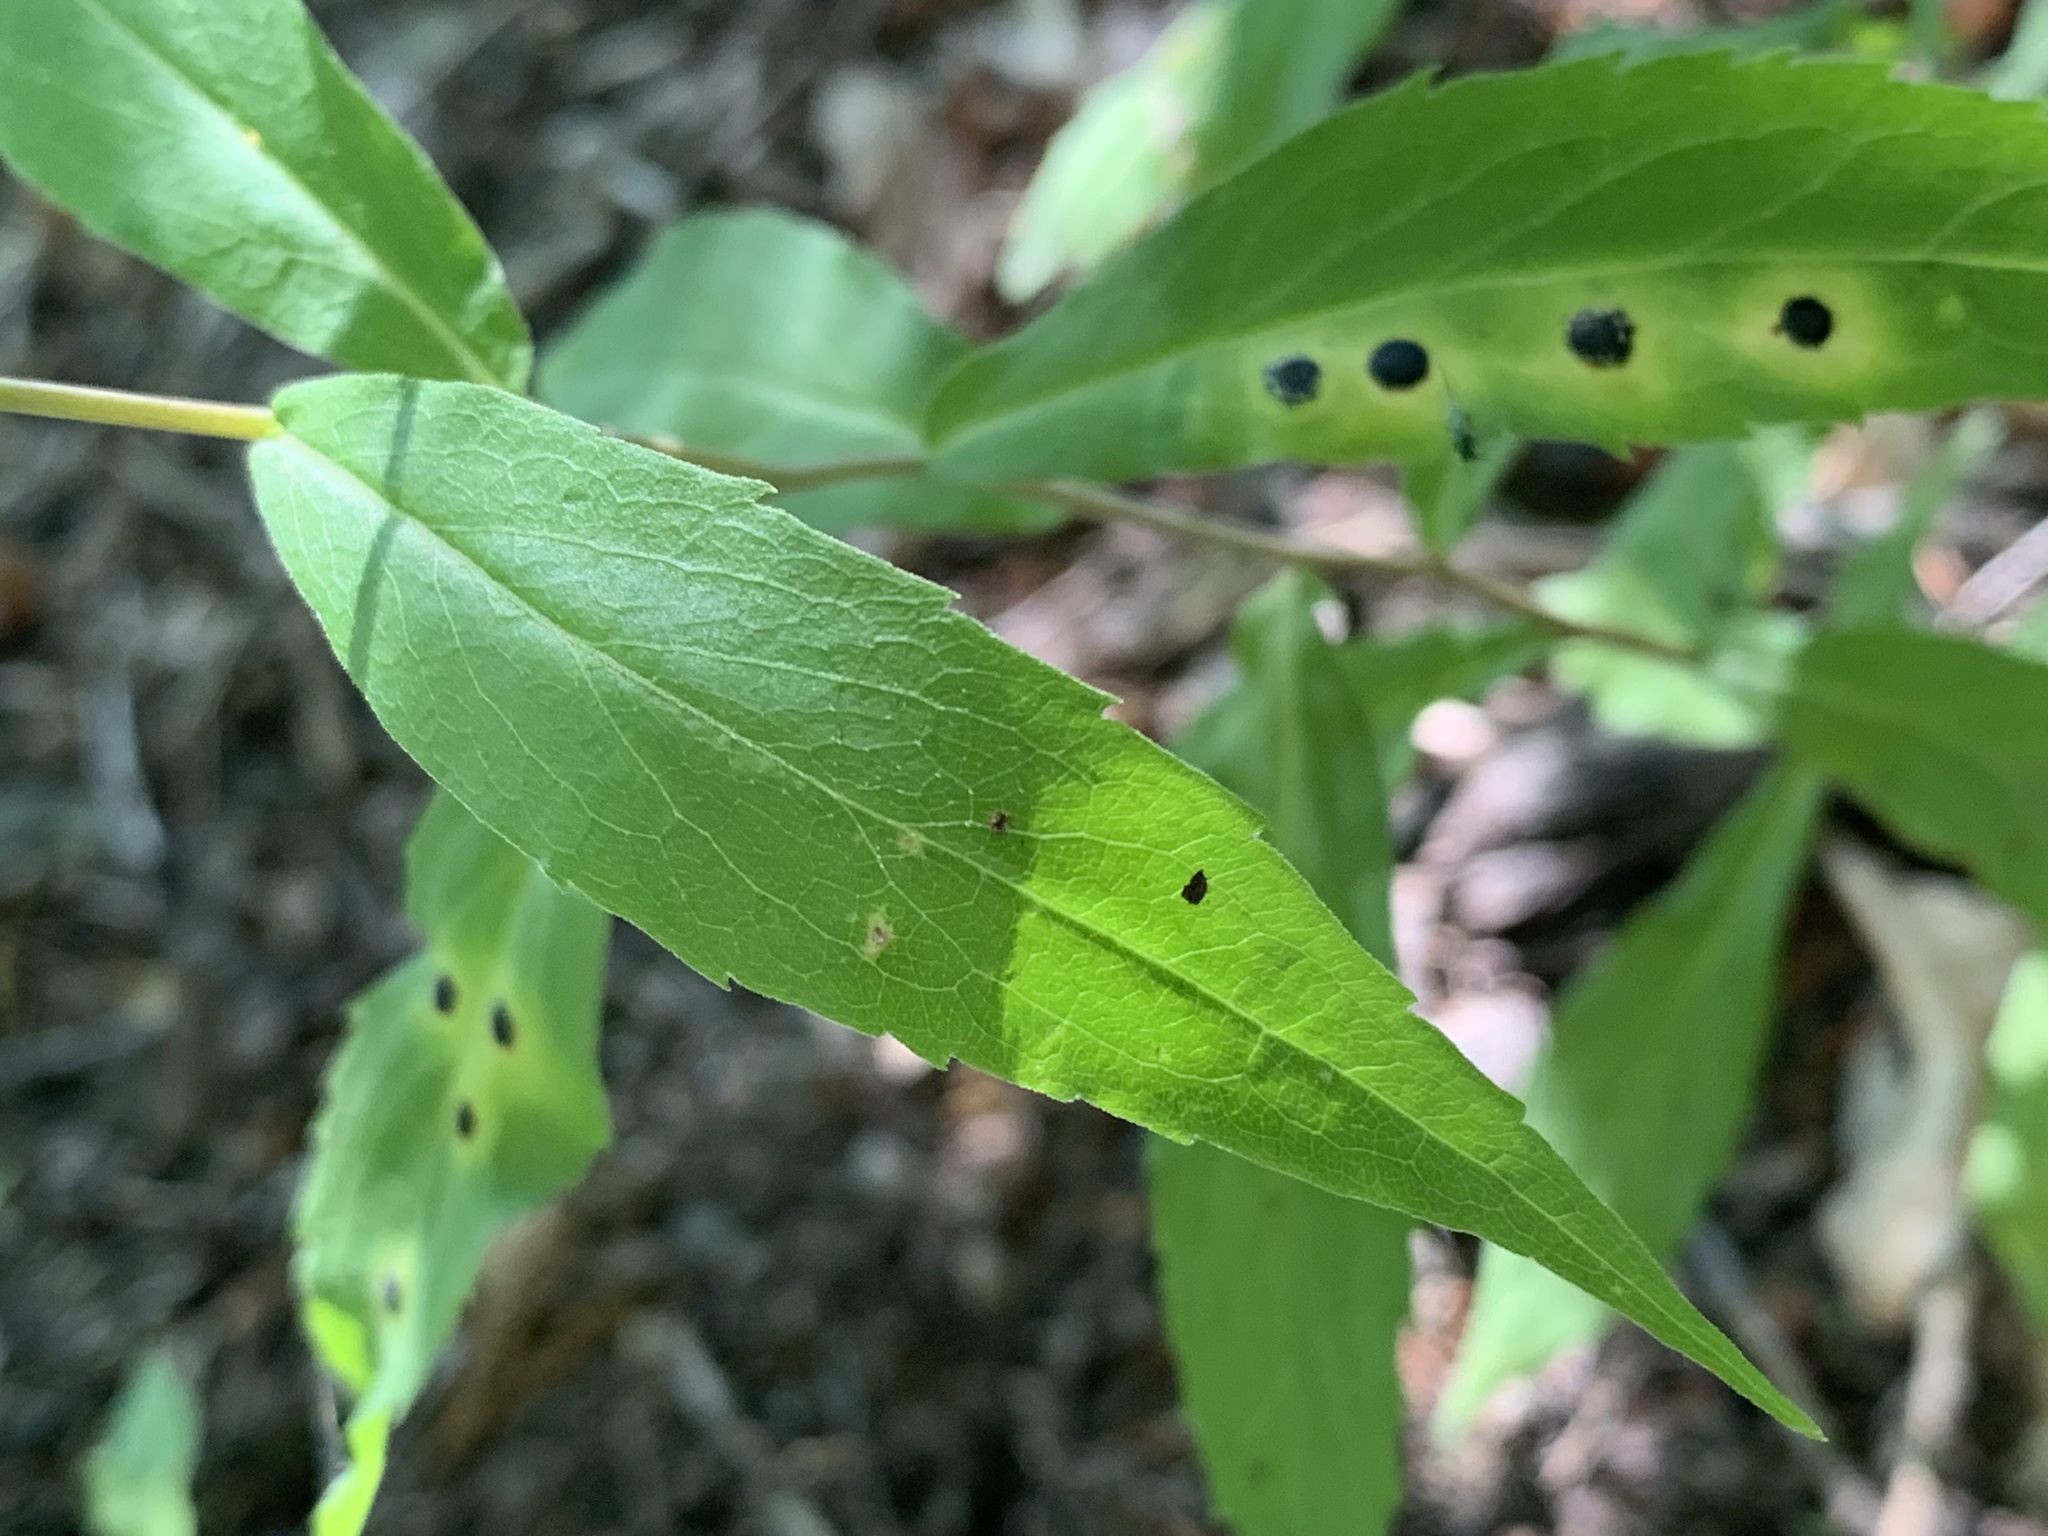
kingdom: Animalia
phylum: Arthropoda
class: Insecta
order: Diptera
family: Cecidomyiidae
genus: Asteromyia
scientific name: Asteromyia carbonifera
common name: Carbonifera goldenrod gall midge
